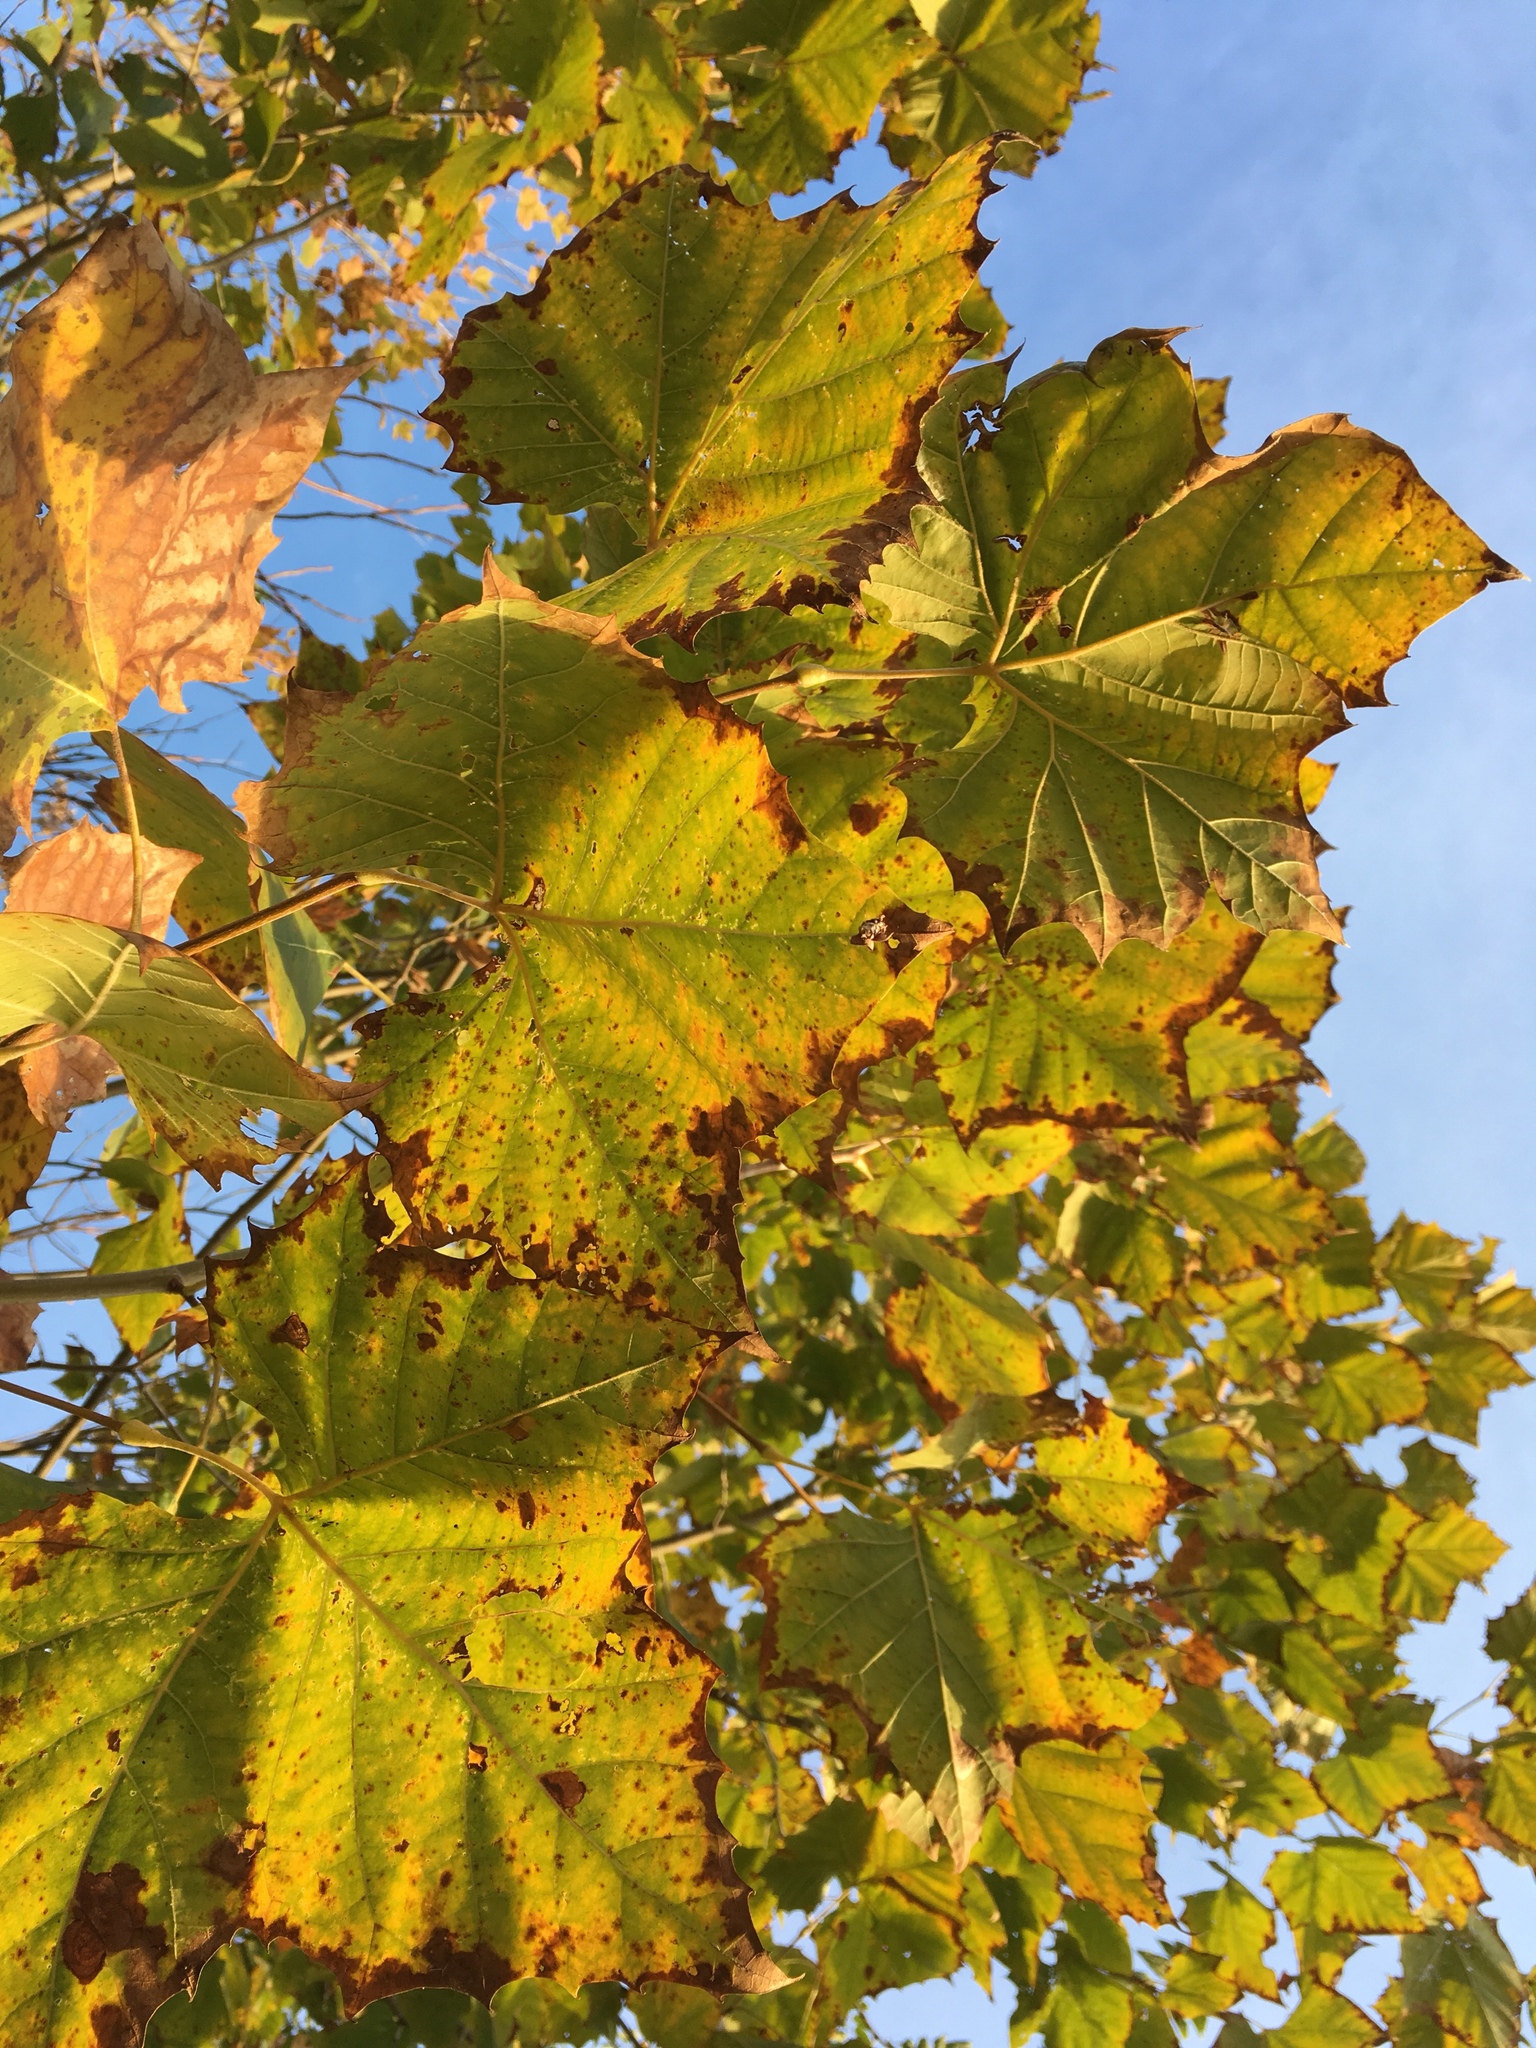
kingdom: Plantae
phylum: Tracheophyta
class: Magnoliopsida
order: Proteales
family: Platanaceae
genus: Platanus
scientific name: Platanus occidentalis
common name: American sycamore
